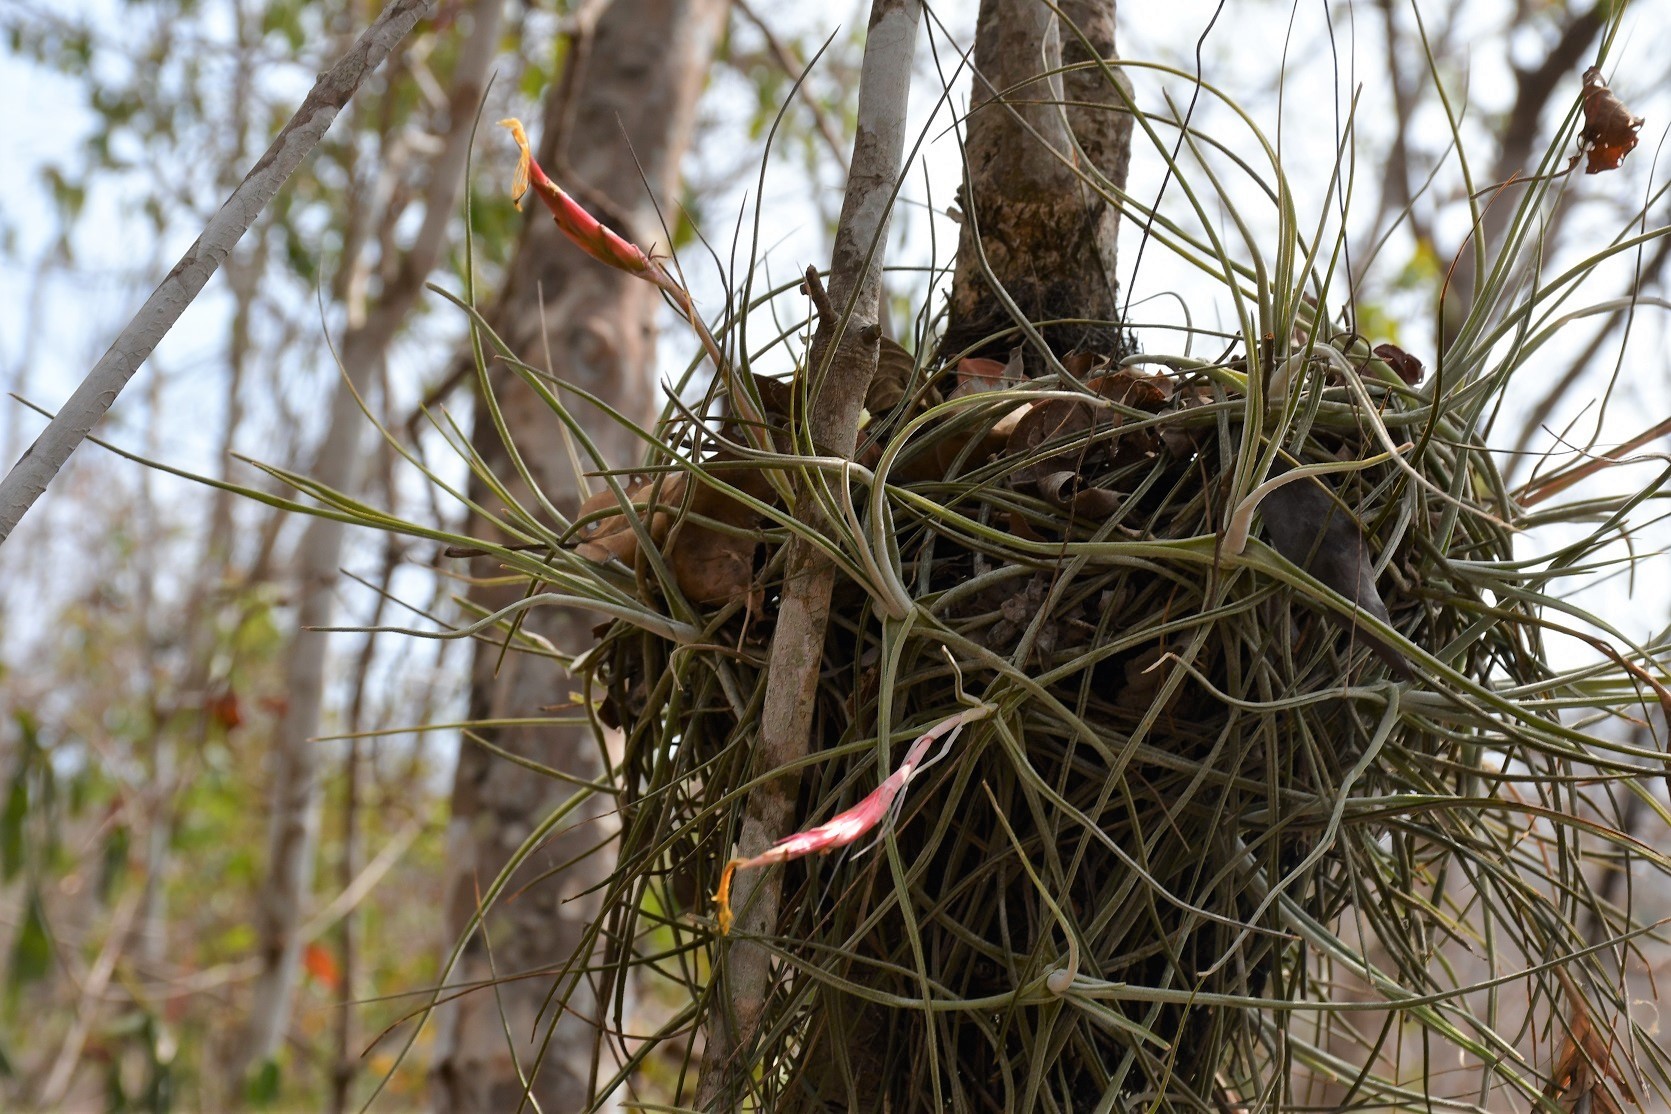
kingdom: Plantae
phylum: Tracheophyta
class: Liliopsida
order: Poales
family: Bromeliaceae
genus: Tillandsia
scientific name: Tillandsia schiedeana
